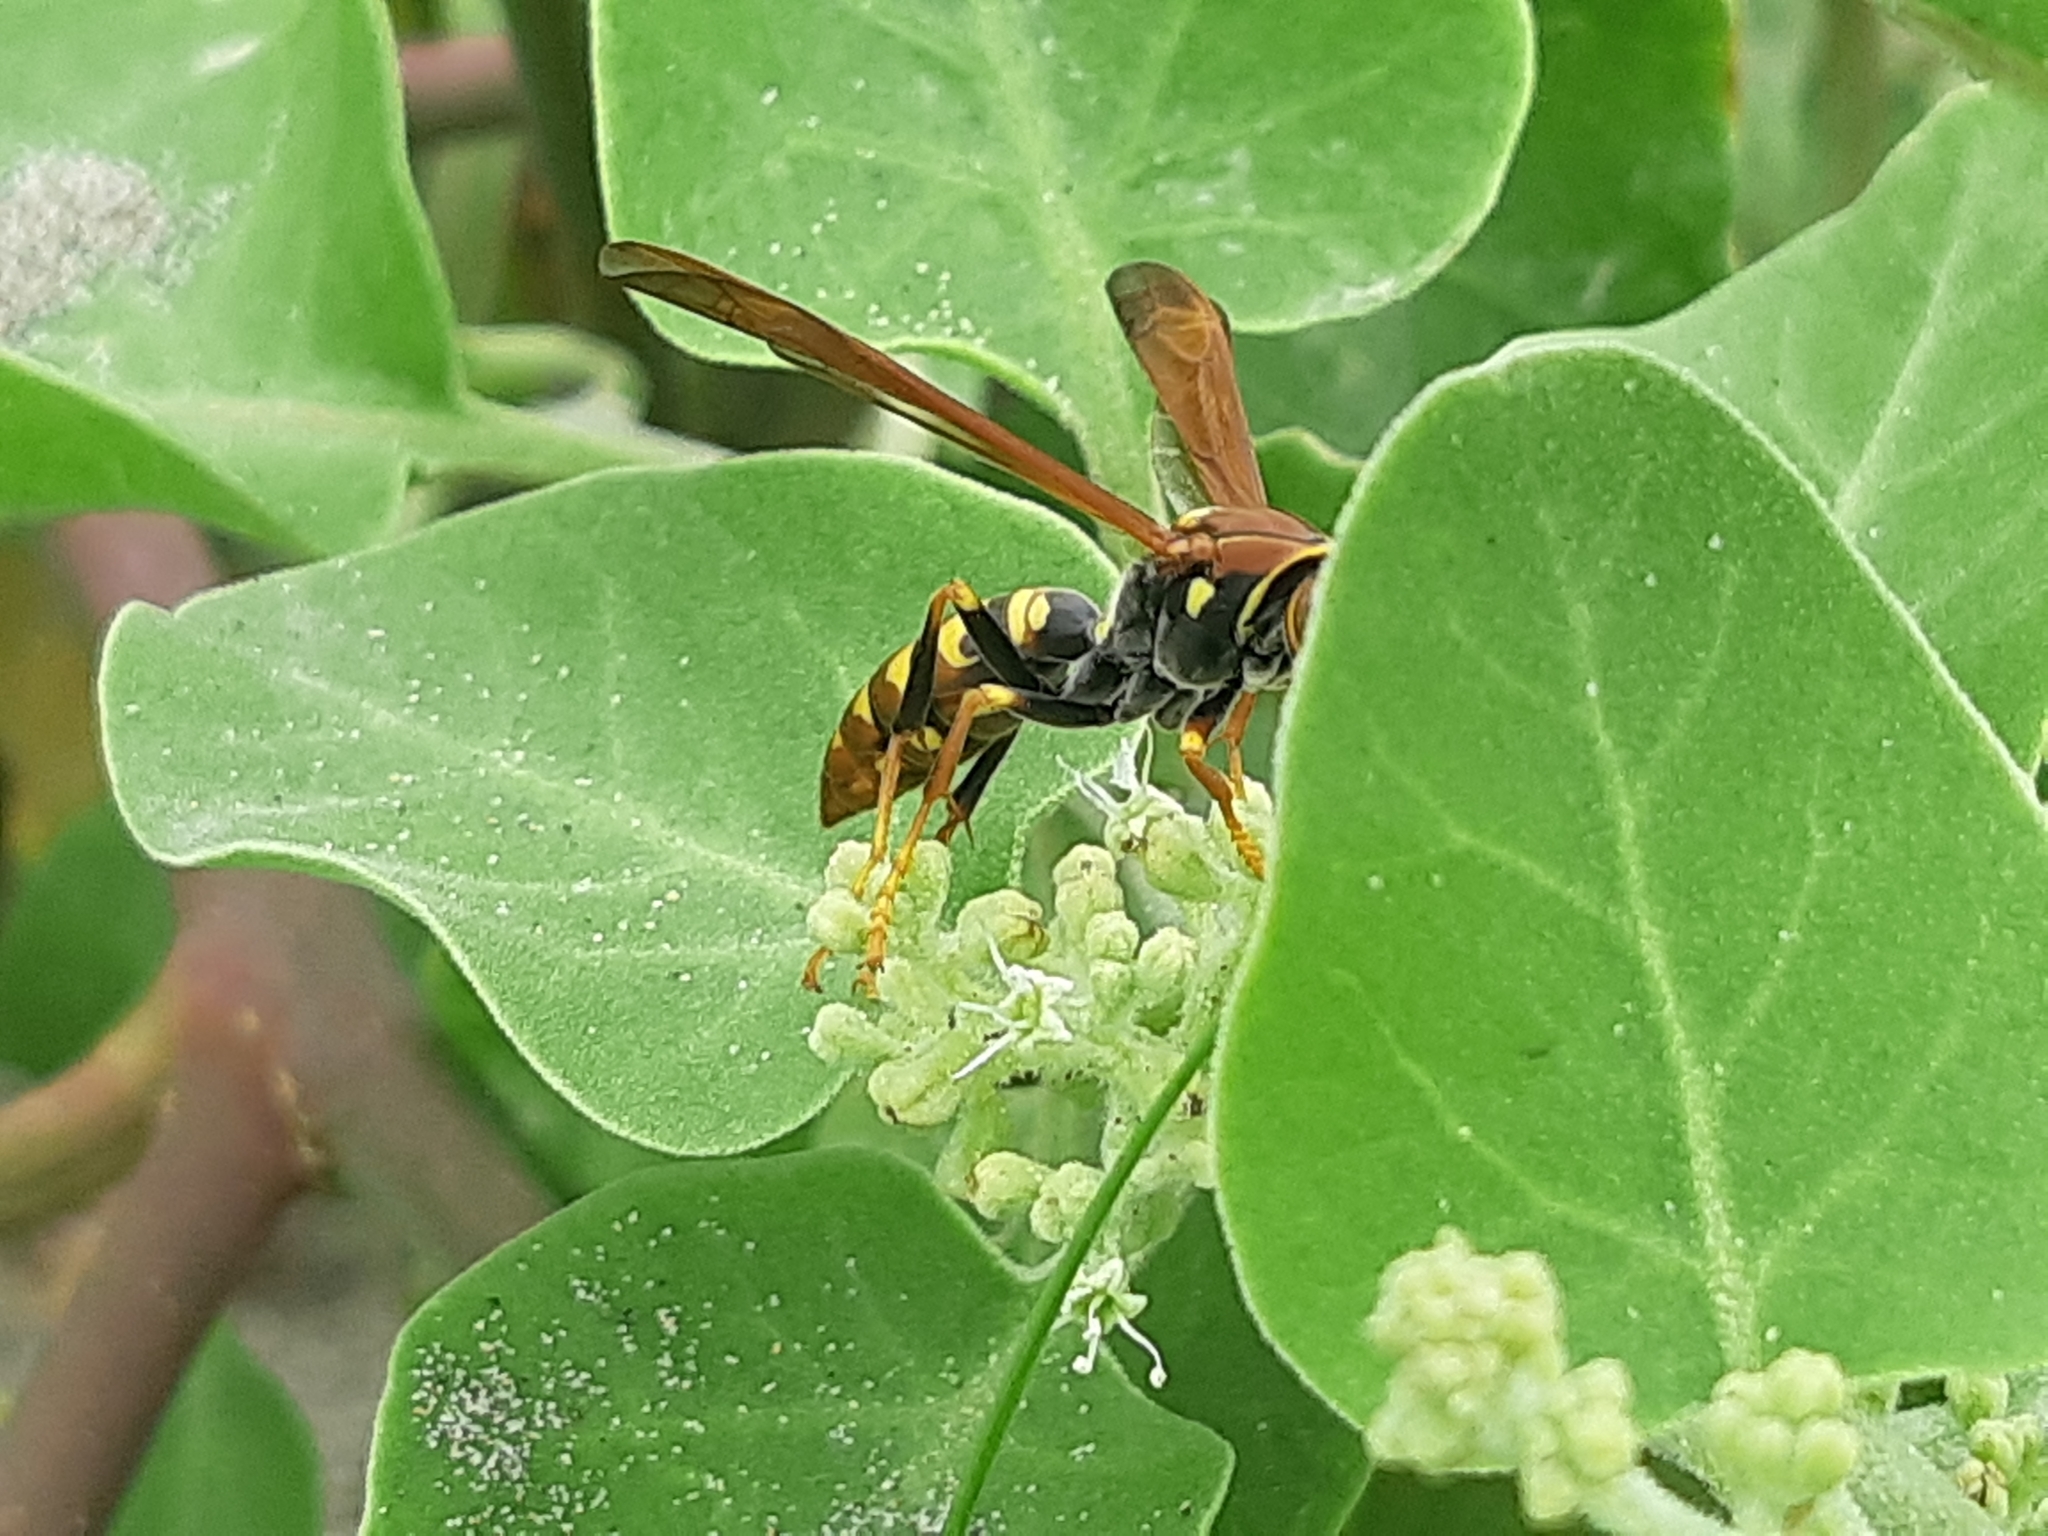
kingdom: Animalia
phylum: Arthropoda
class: Insecta
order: Hymenoptera
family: Eumenidae
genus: Polistes
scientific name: Polistes versicolor
